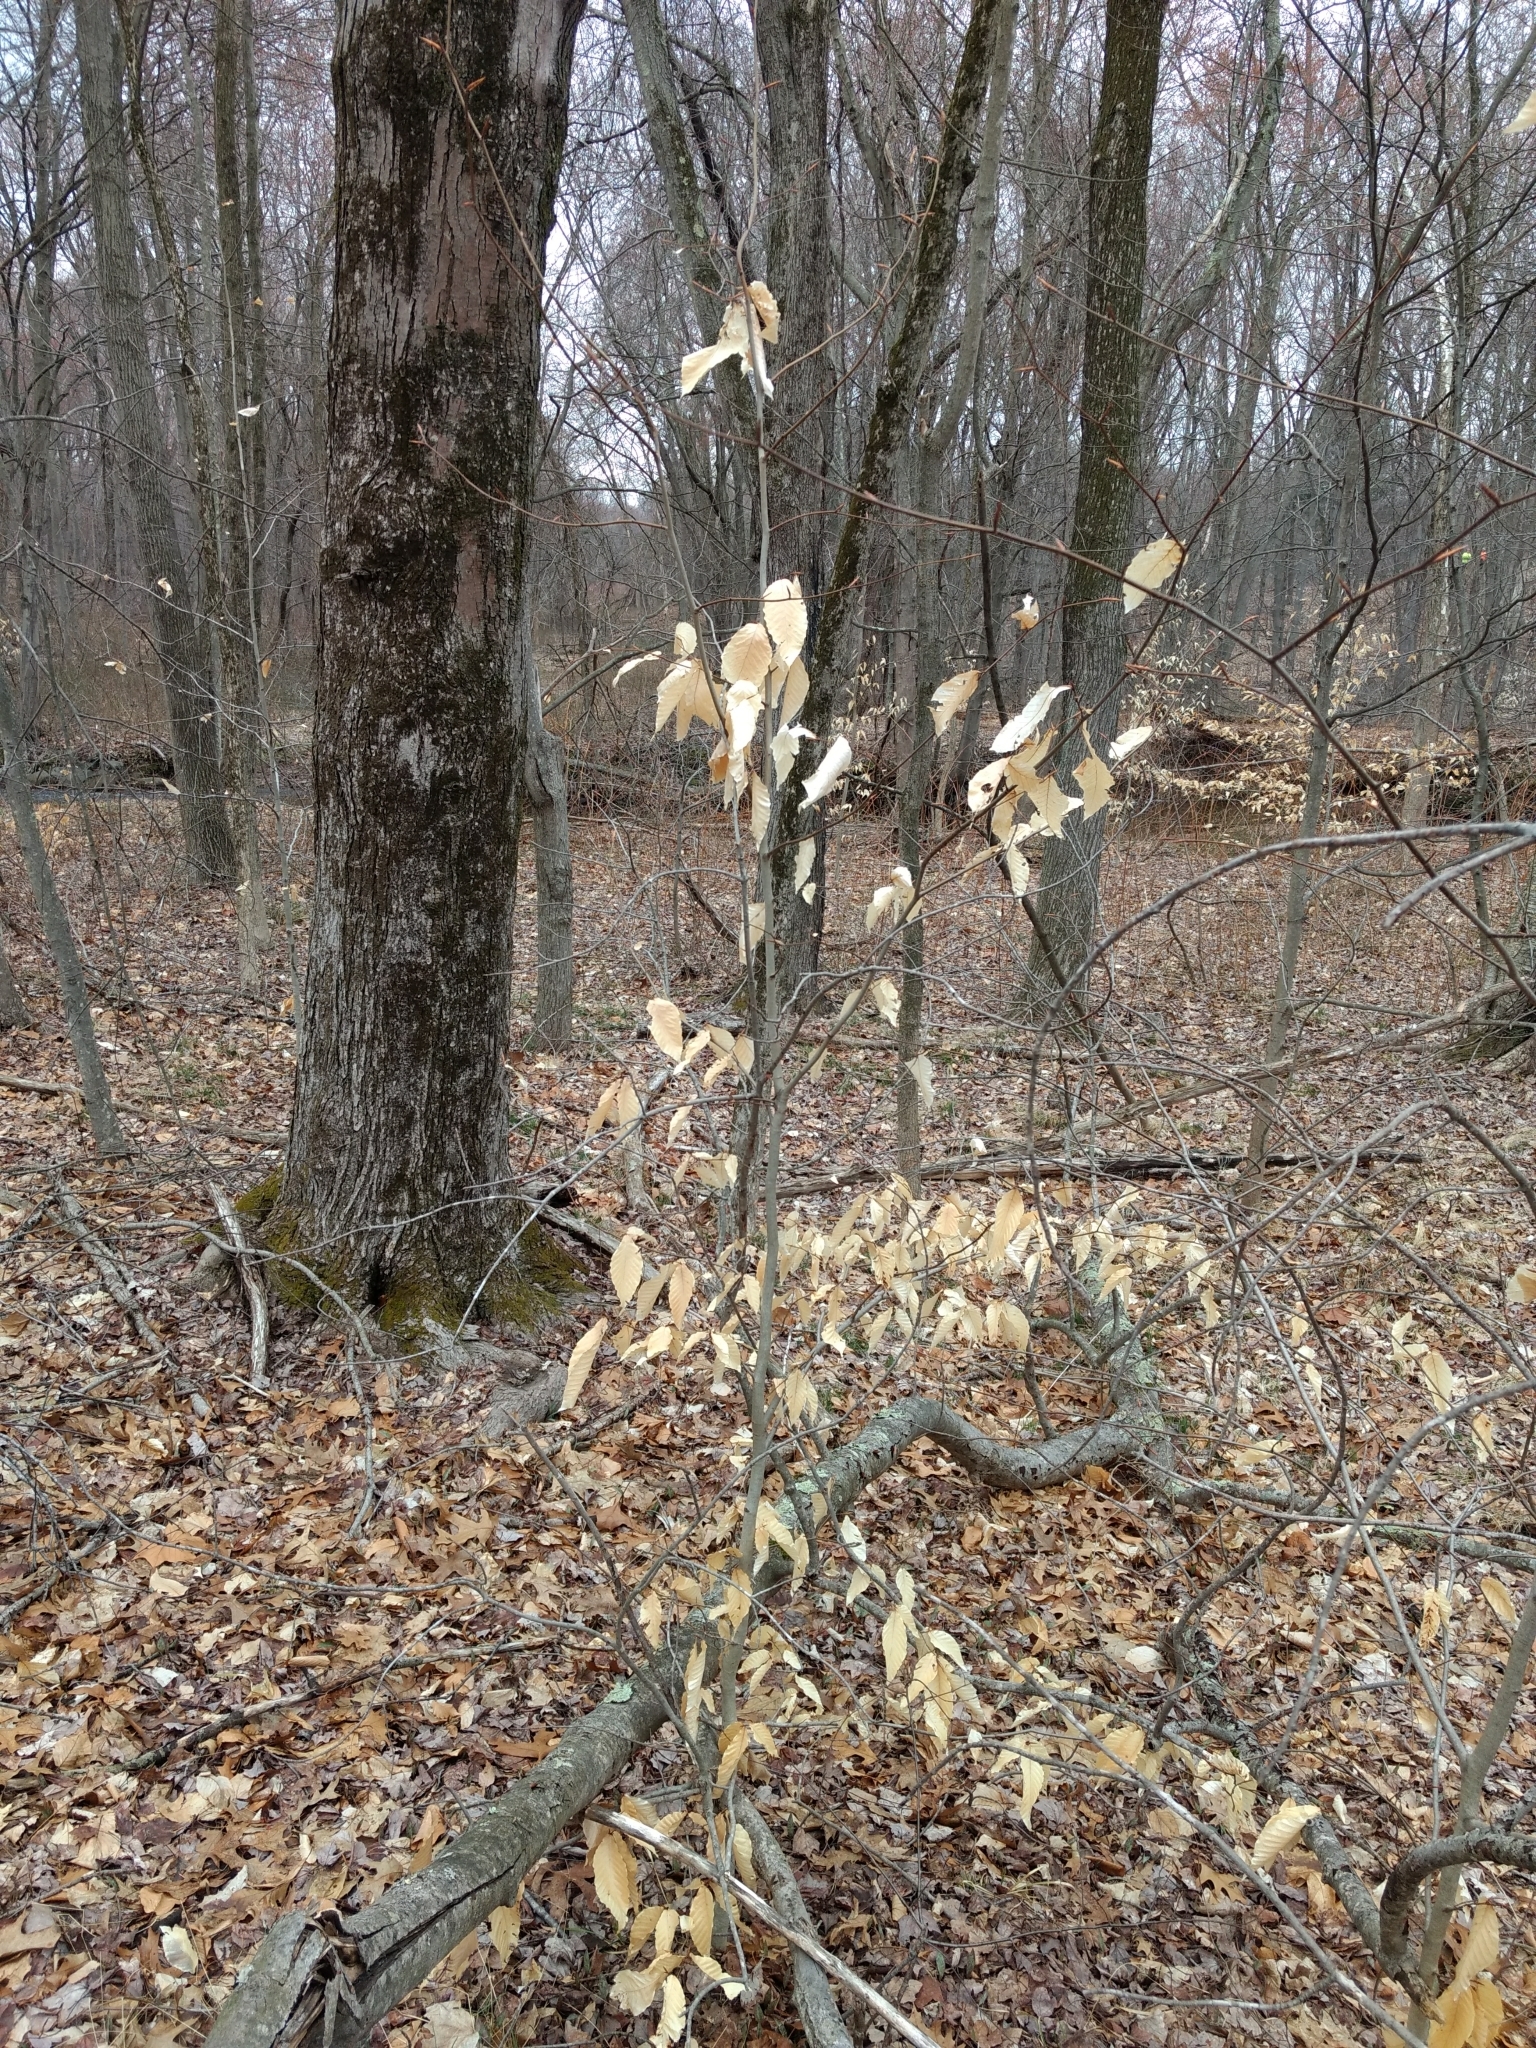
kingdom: Plantae
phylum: Tracheophyta
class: Magnoliopsida
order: Fagales
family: Fagaceae
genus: Fagus
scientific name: Fagus grandifolia
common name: American beech
